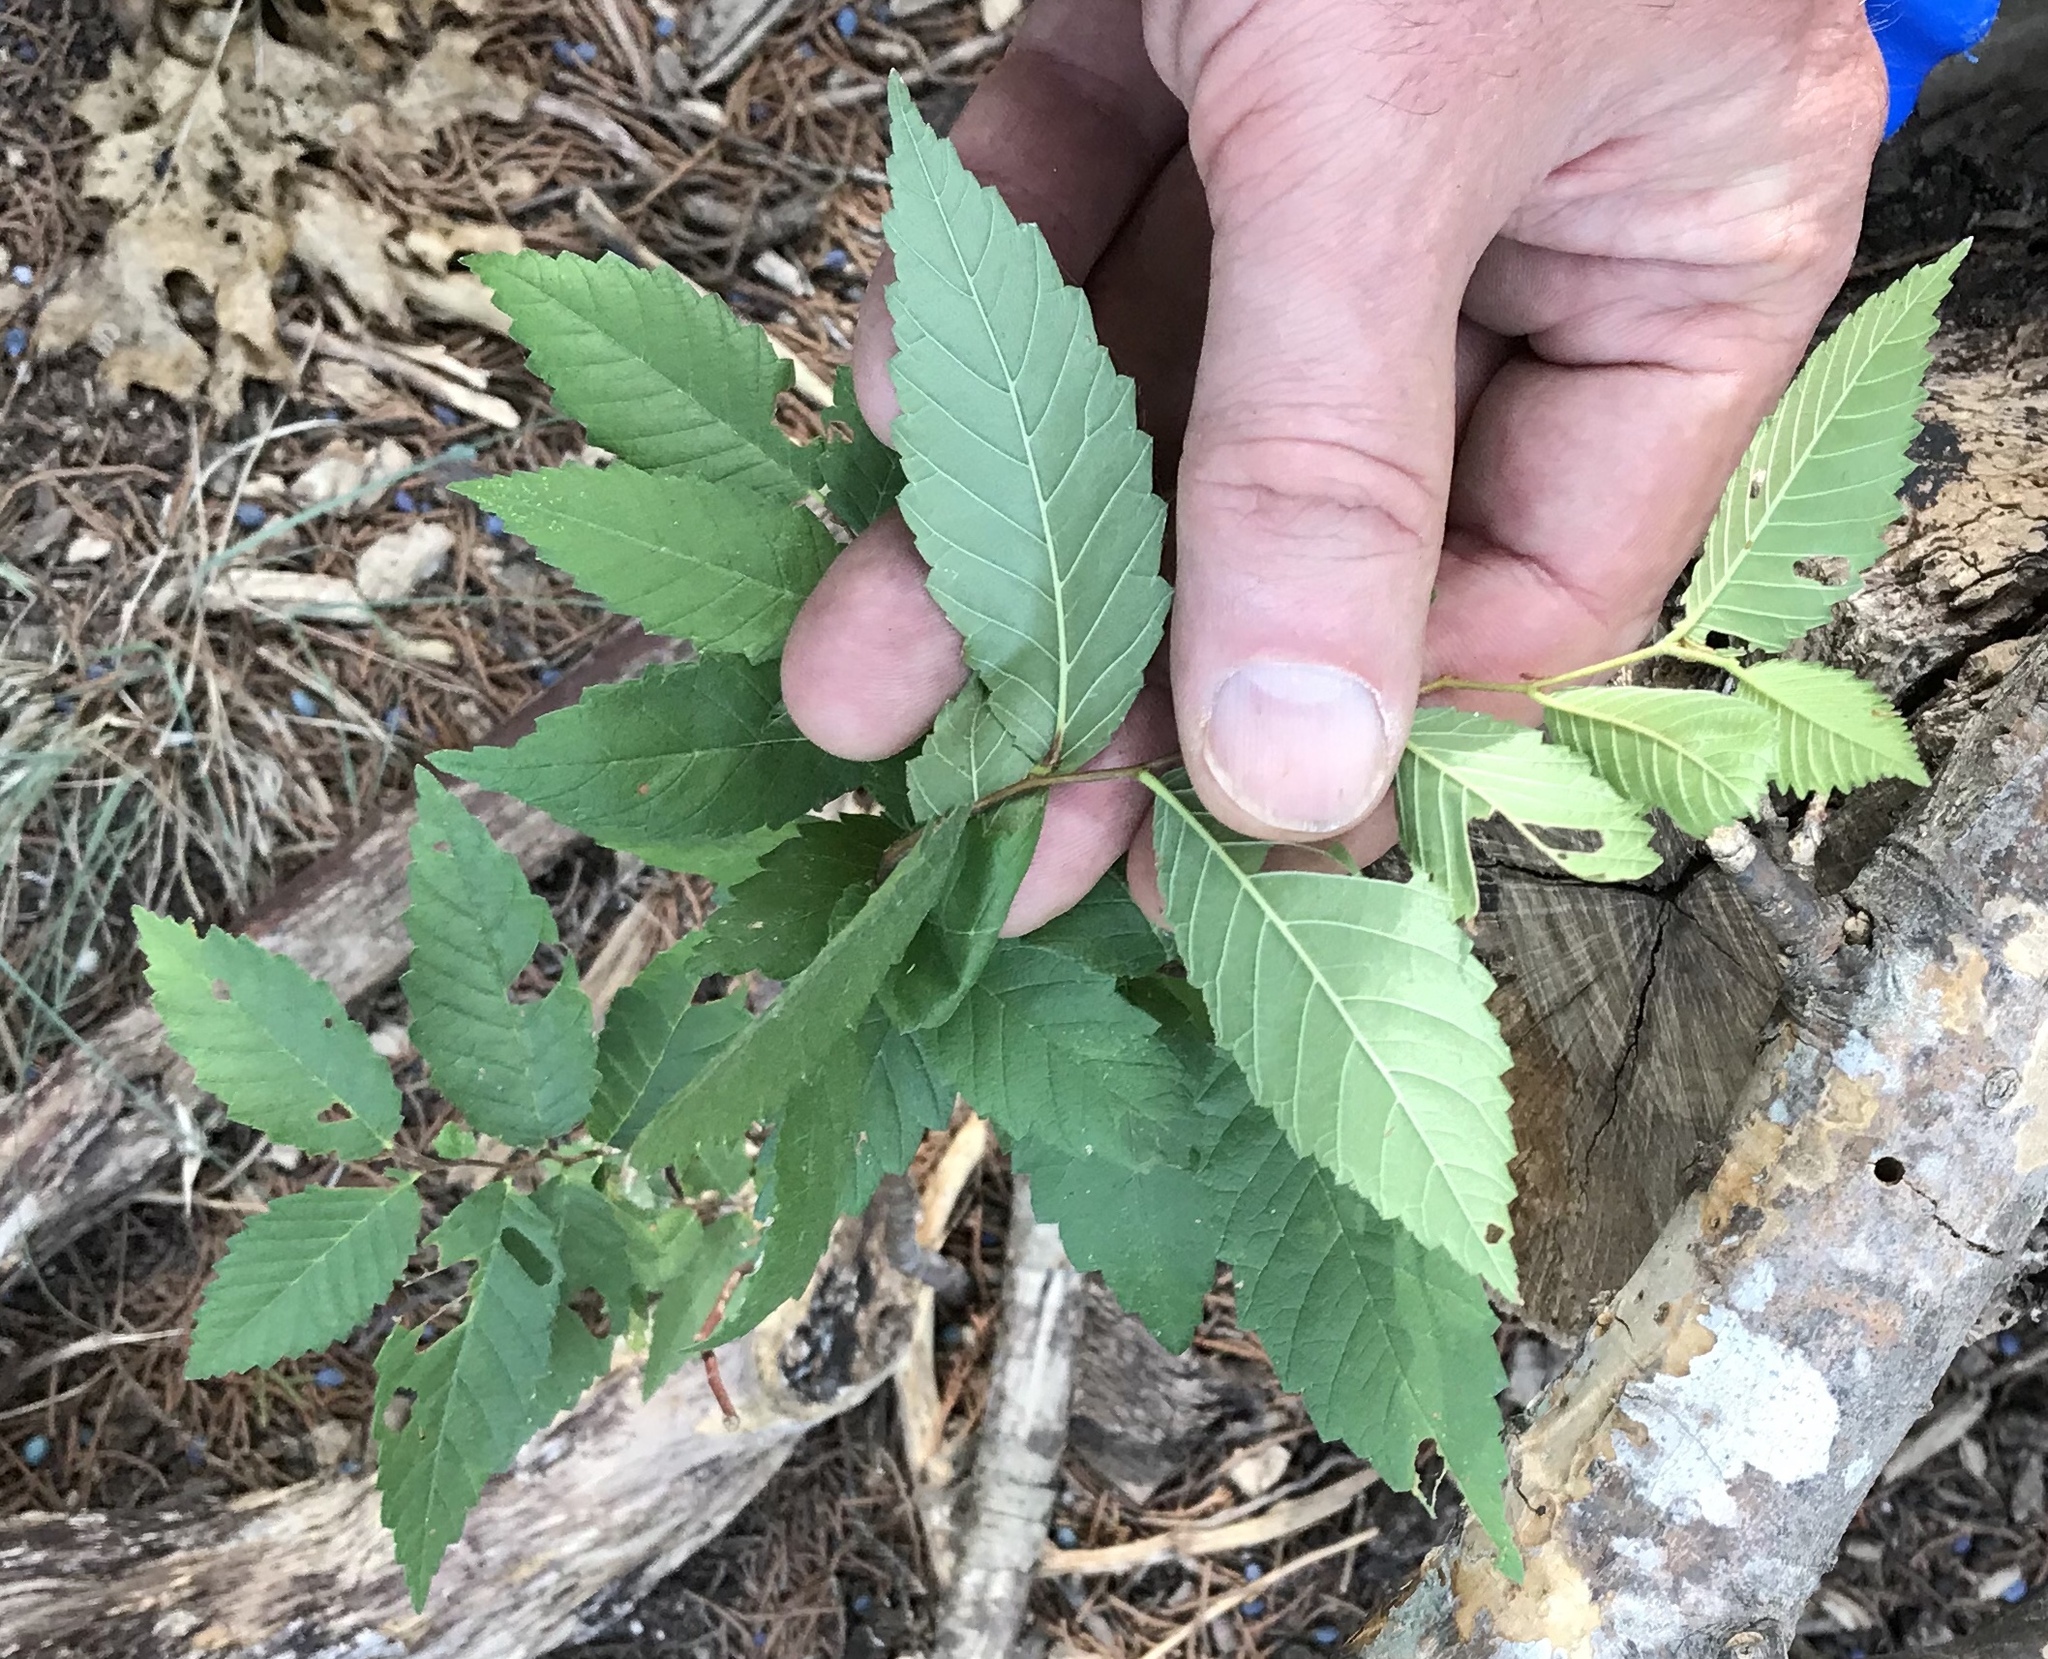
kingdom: Plantae
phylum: Tracheophyta
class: Magnoliopsida
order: Rosales
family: Ulmaceae
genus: Ulmus
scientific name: Ulmus parvifolia
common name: Chinese elm
